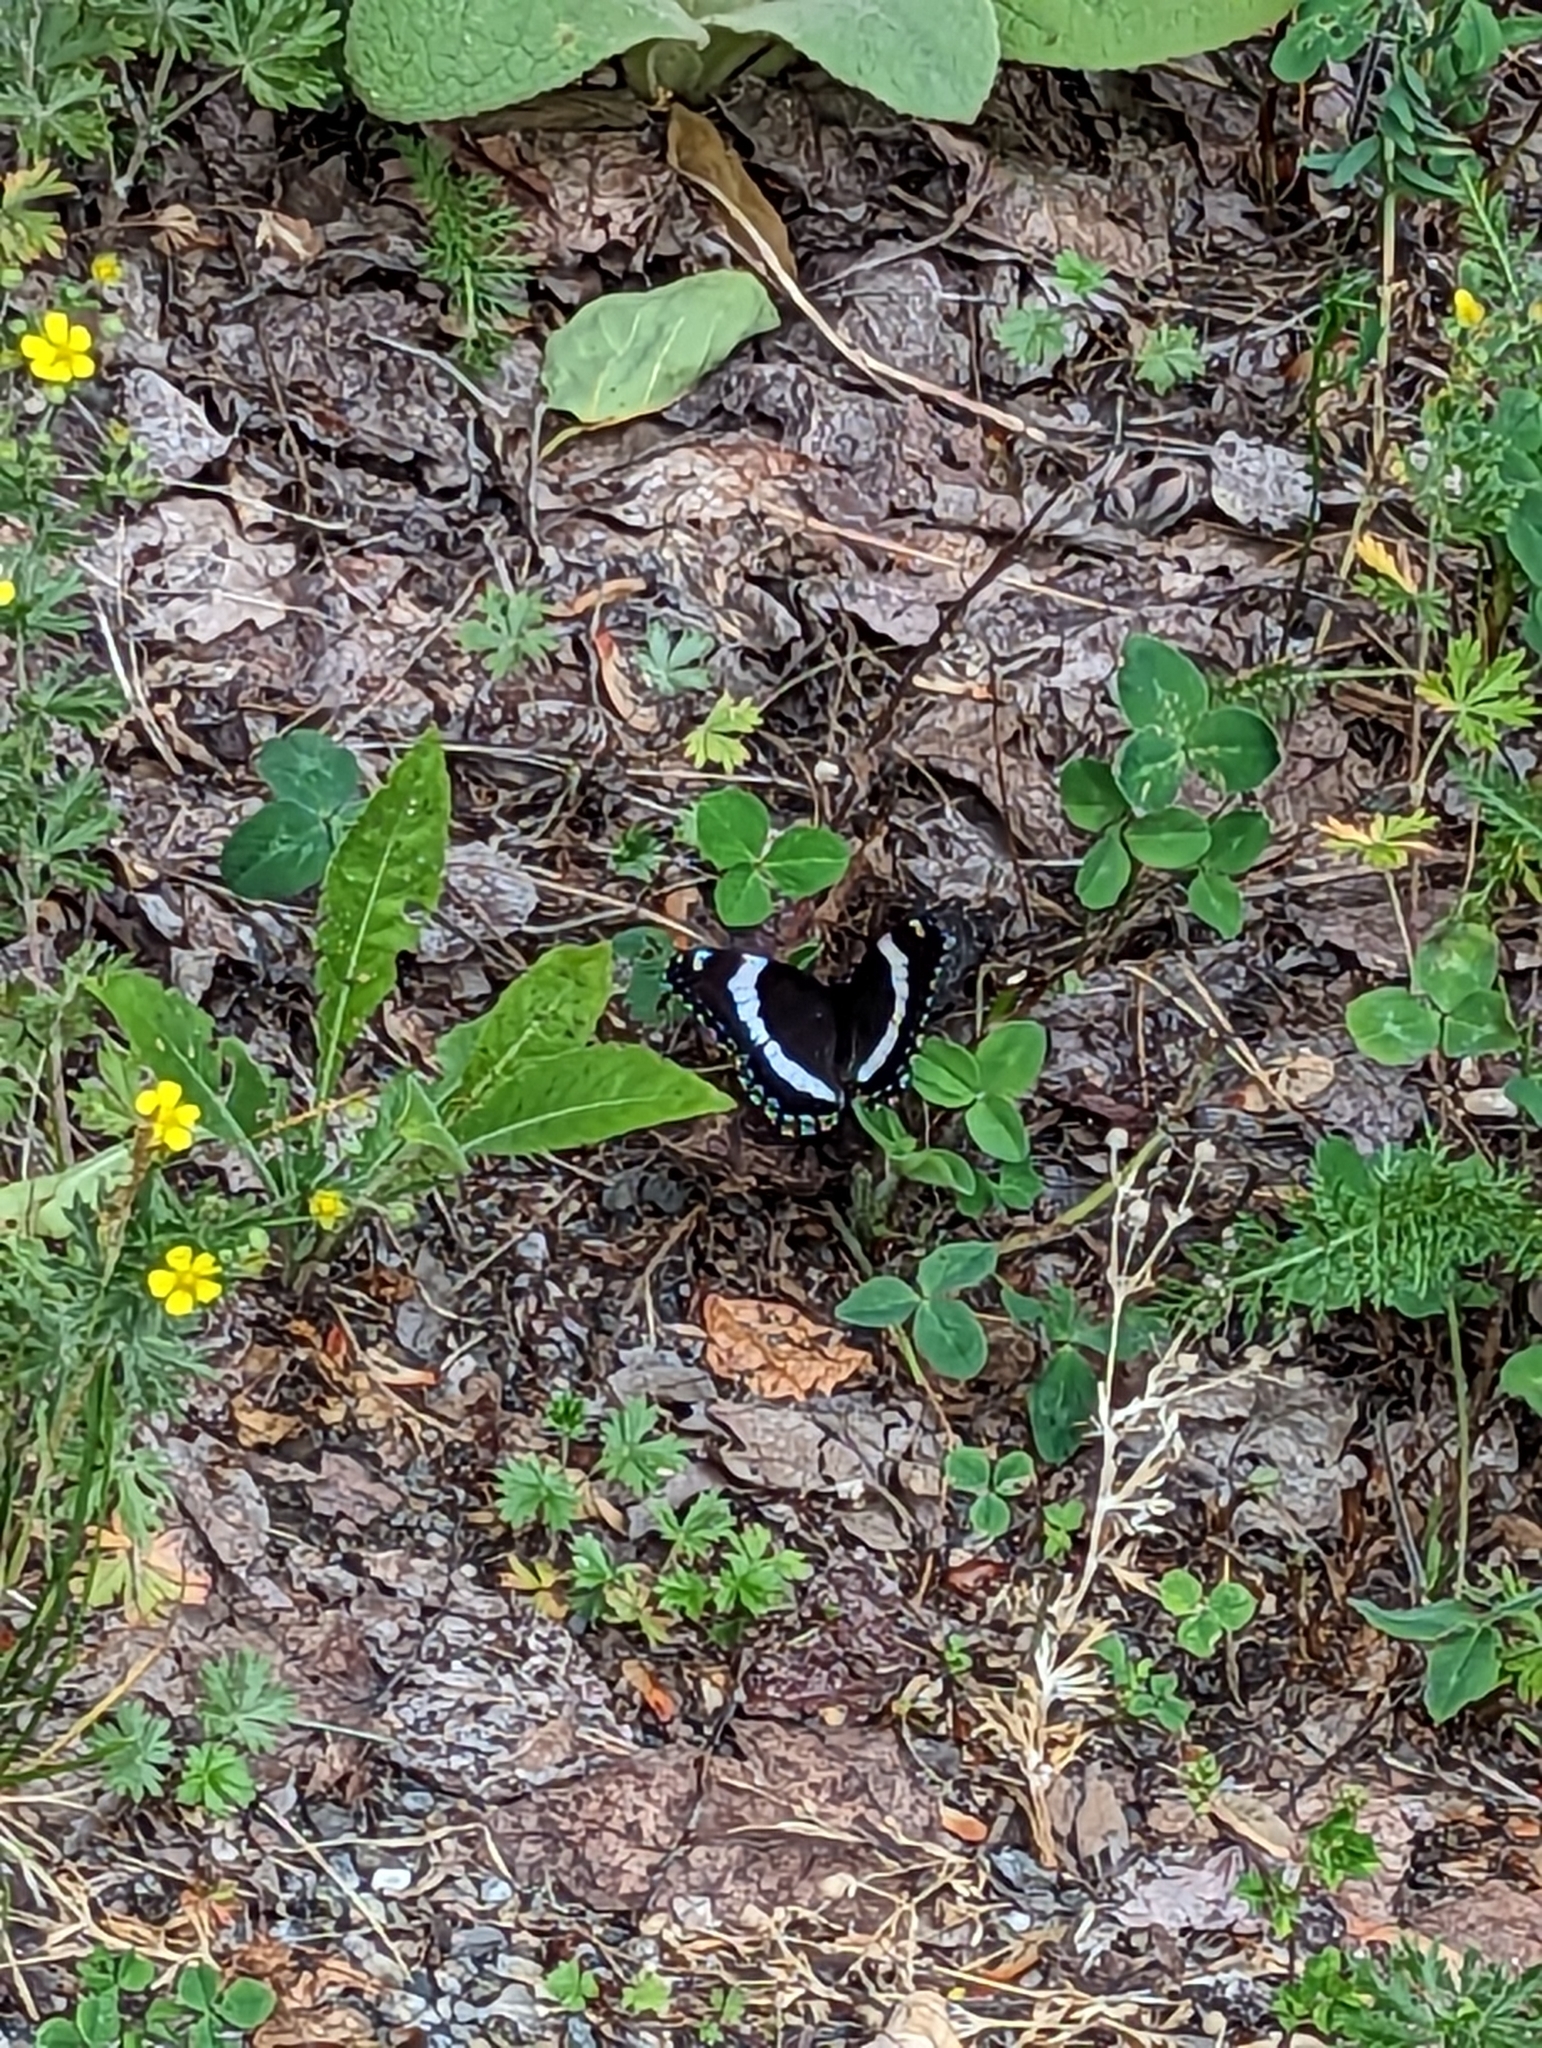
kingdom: Animalia
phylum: Arthropoda
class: Insecta
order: Lepidoptera
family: Nymphalidae
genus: Limenitis
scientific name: Limenitis arthemis
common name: Red-spotted admiral
